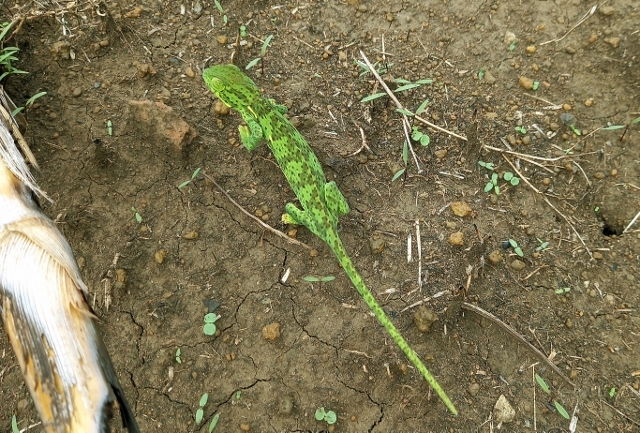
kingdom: Animalia
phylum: Chordata
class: Squamata
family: Chamaeleonidae
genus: Chamaeleo
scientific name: Chamaeleo dilepis
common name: Flapneck chameleon
